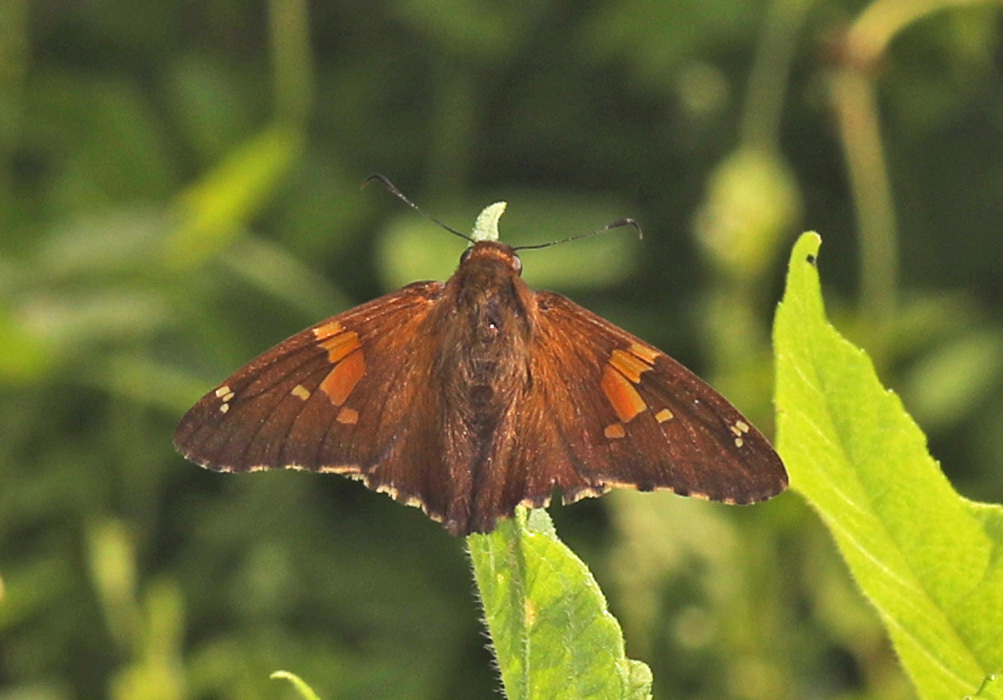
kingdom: Animalia
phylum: Arthropoda
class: Insecta
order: Lepidoptera
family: Hesperiidae
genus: Epargyreus
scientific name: Epargyreus clarus
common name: Silver-spotted skipper
